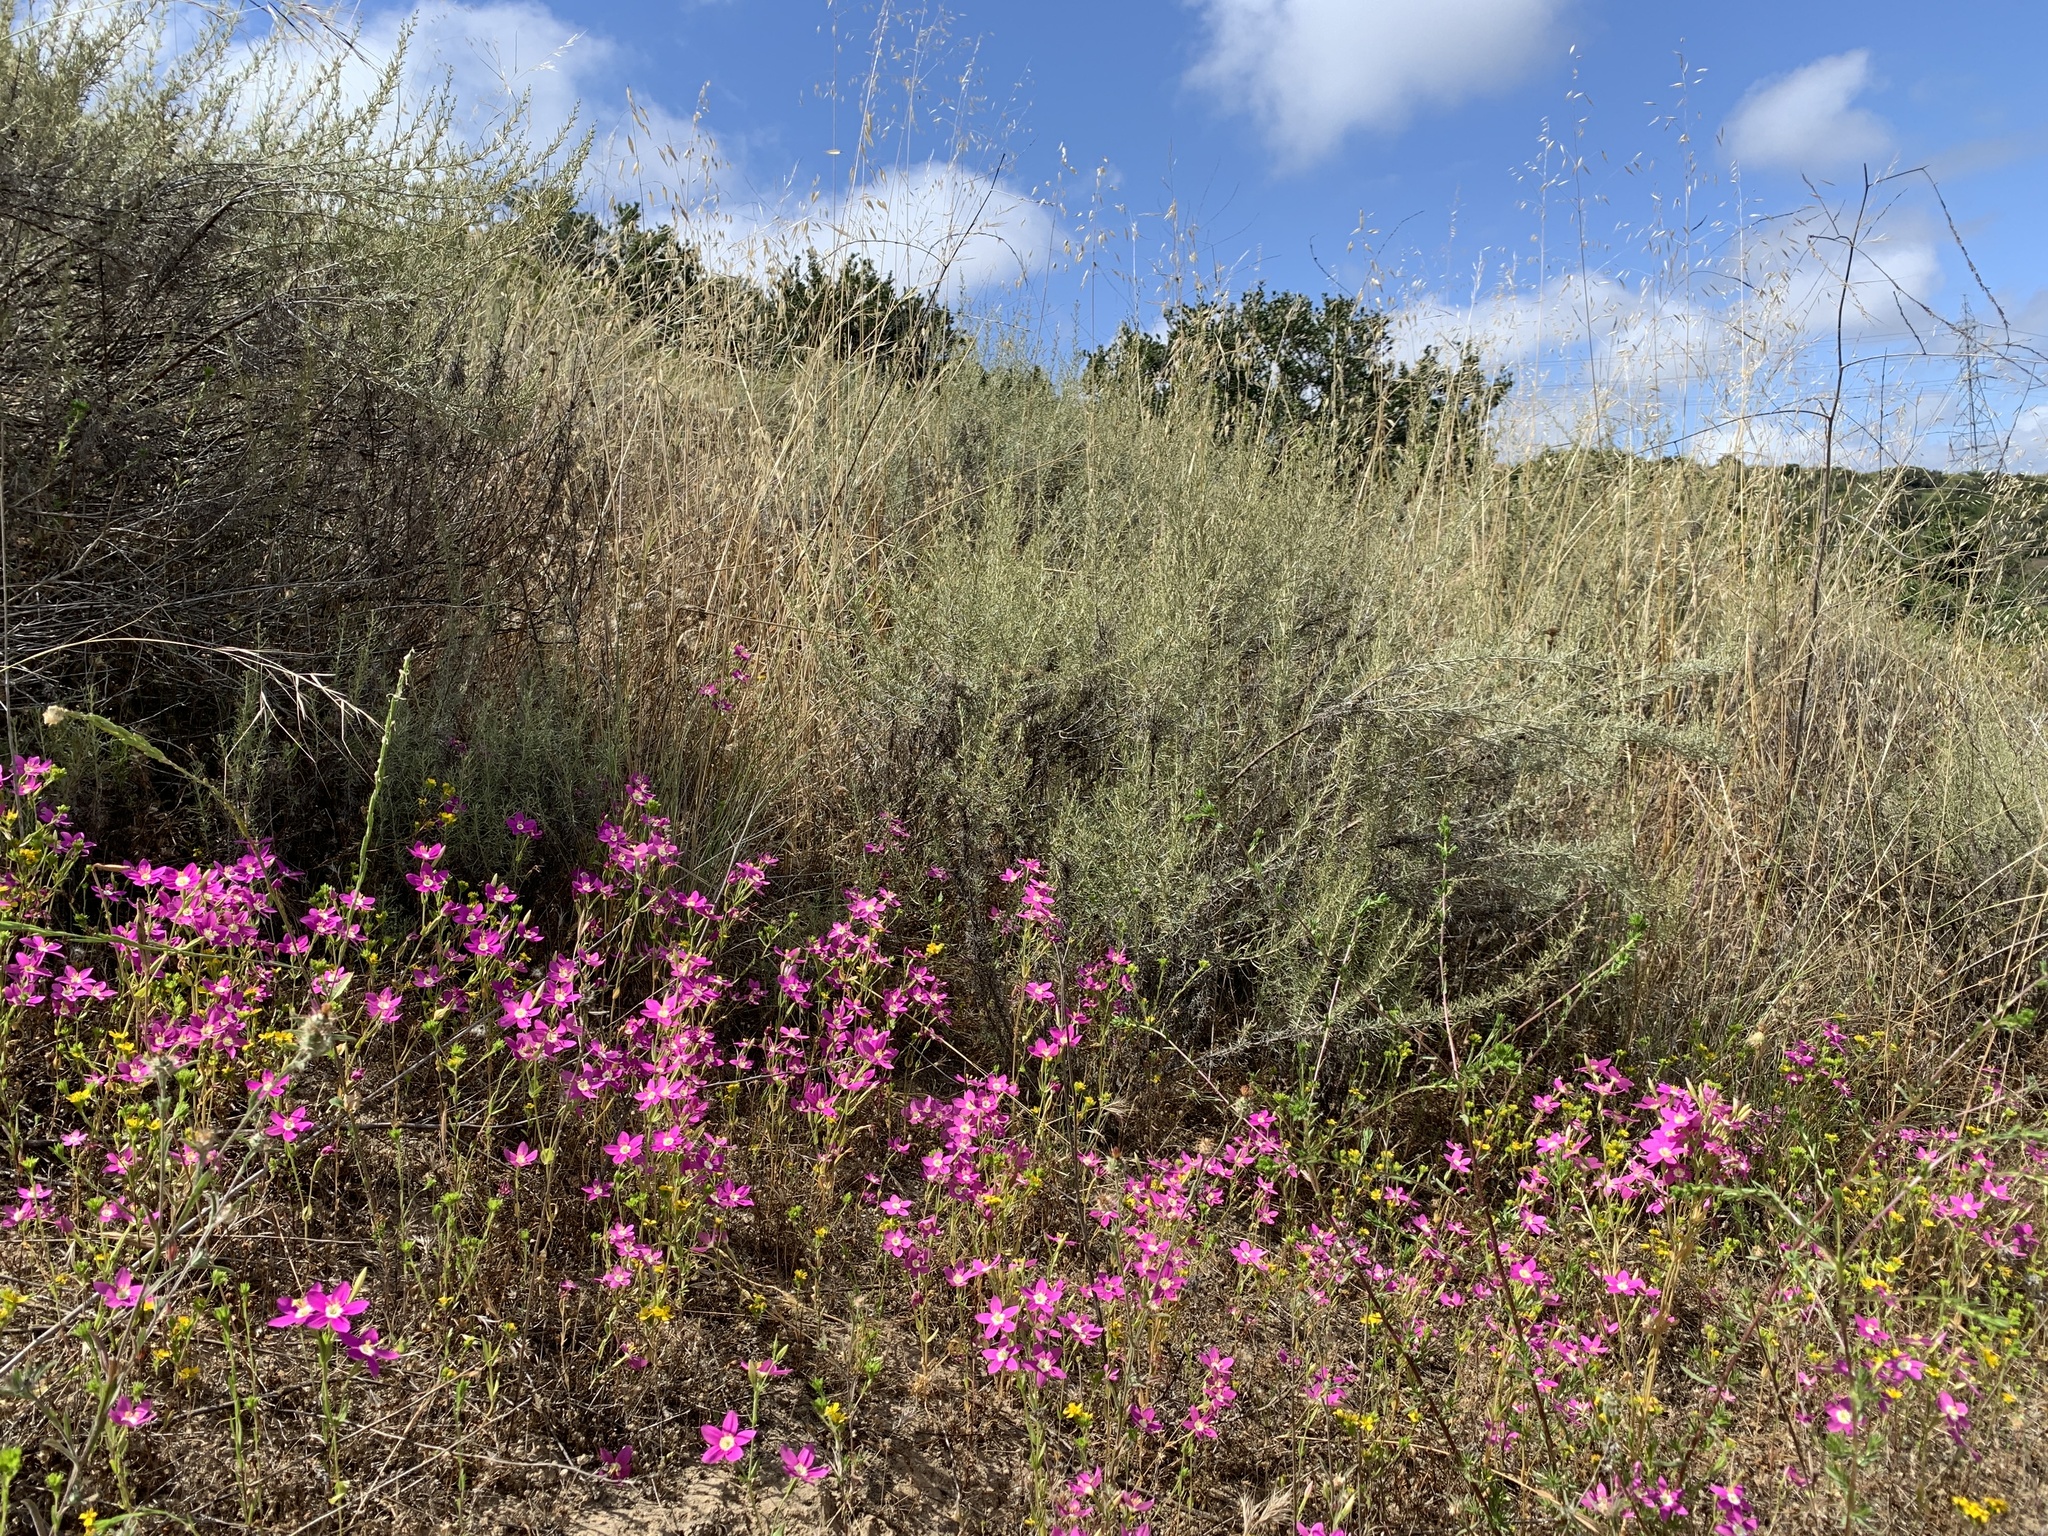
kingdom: Plantae
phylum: Tracheophyta
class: Magnoliopsida
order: Gentianales
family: Gentianaceae
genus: Zeltnera
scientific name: Zeltnera venusta
